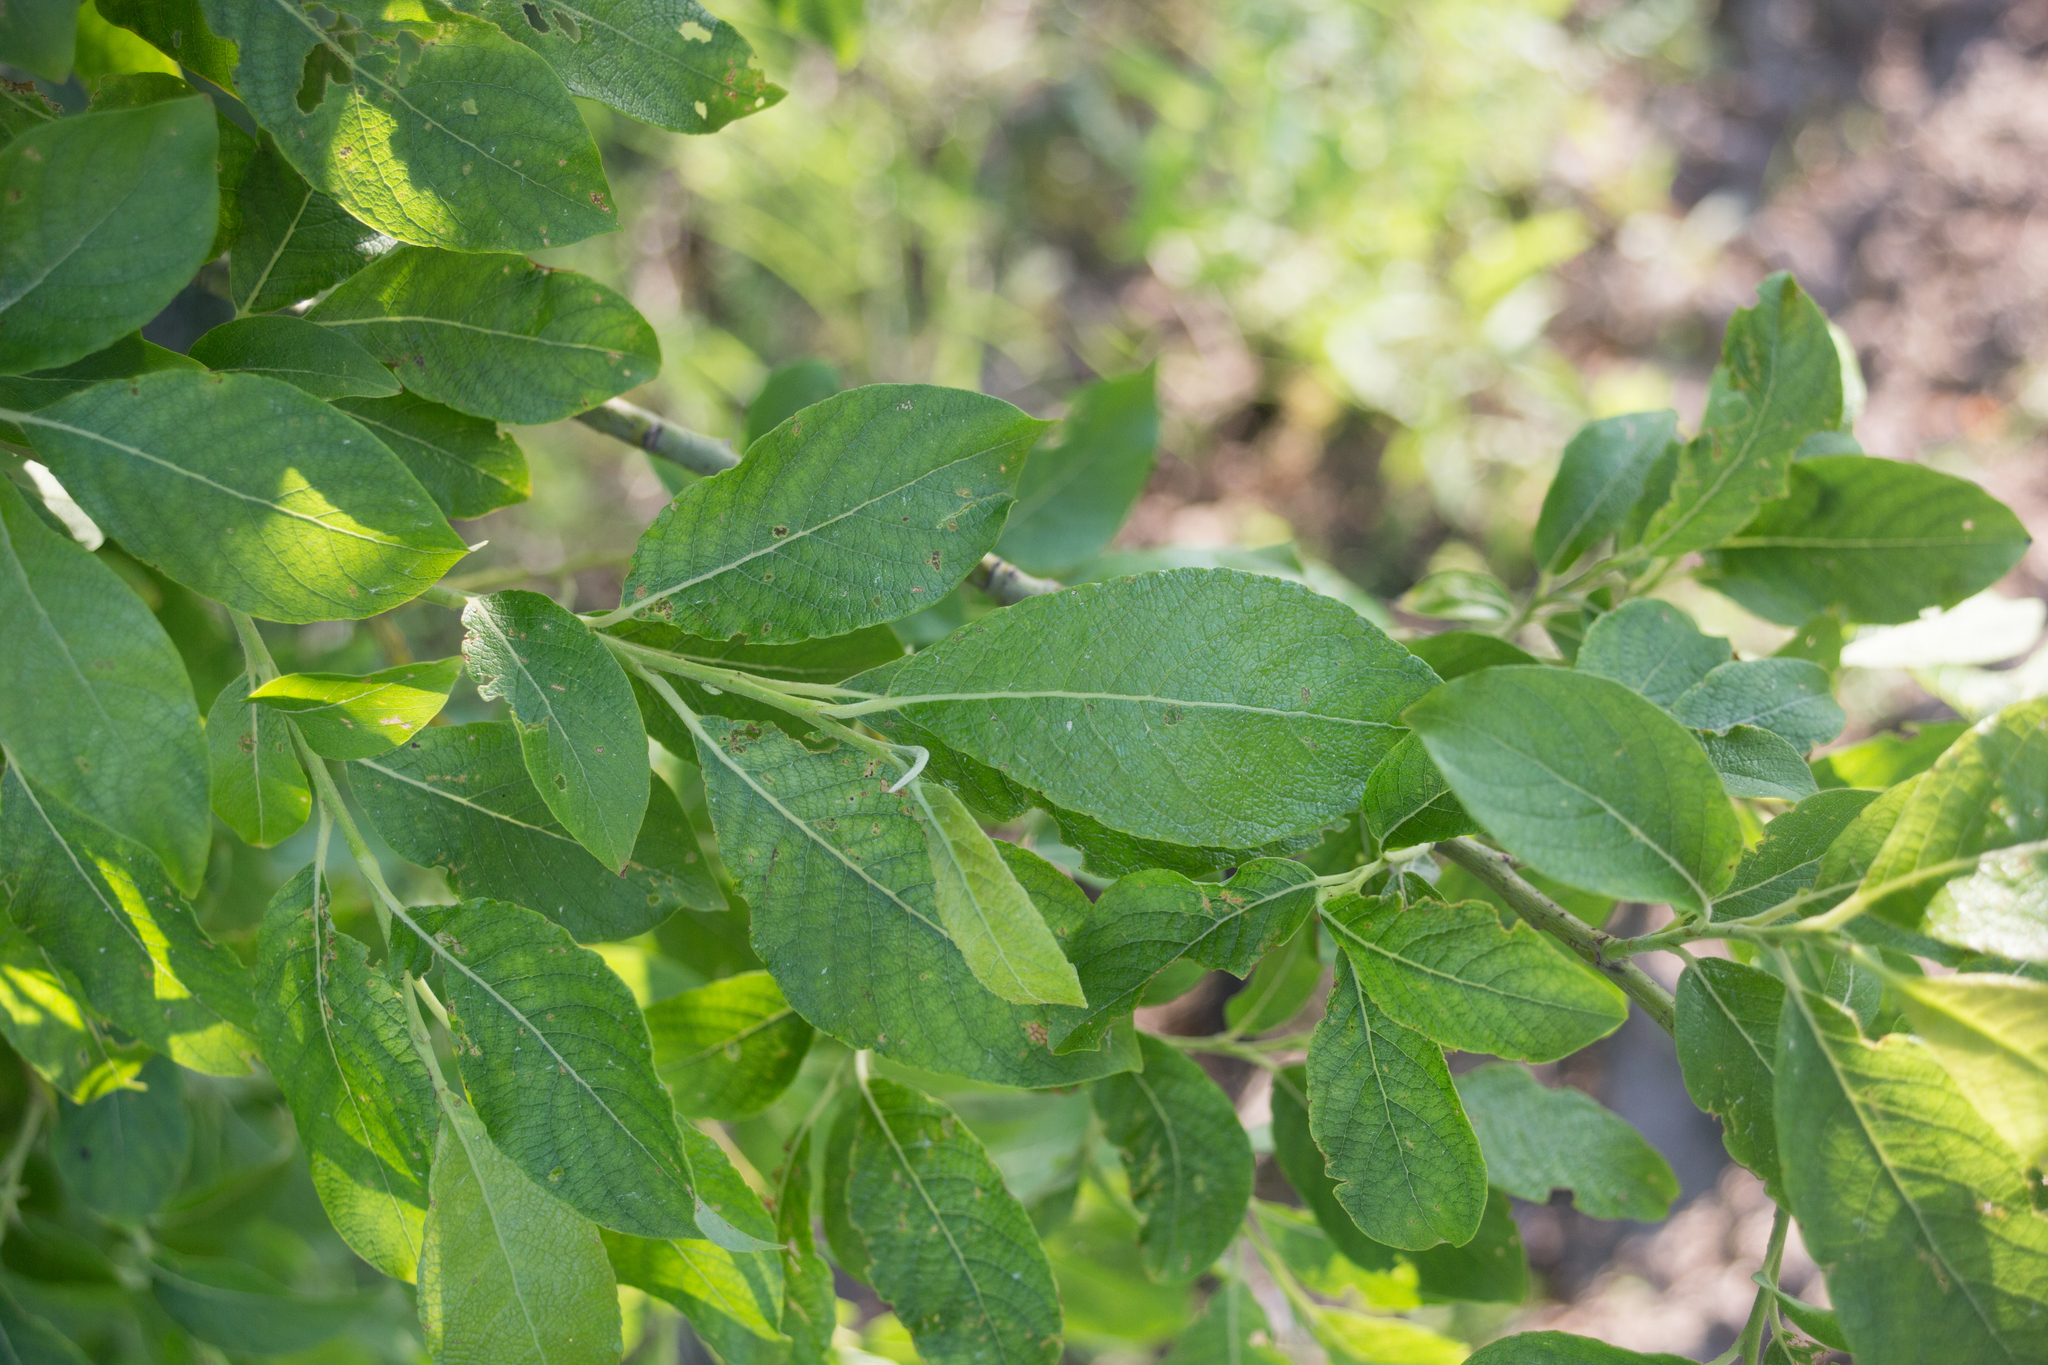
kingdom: Plantae
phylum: Tracheophyta
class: Magnoliopsida
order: Malpighiales
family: Salicaceae
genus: Salix
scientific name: Salix caprea
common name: Goat willow
